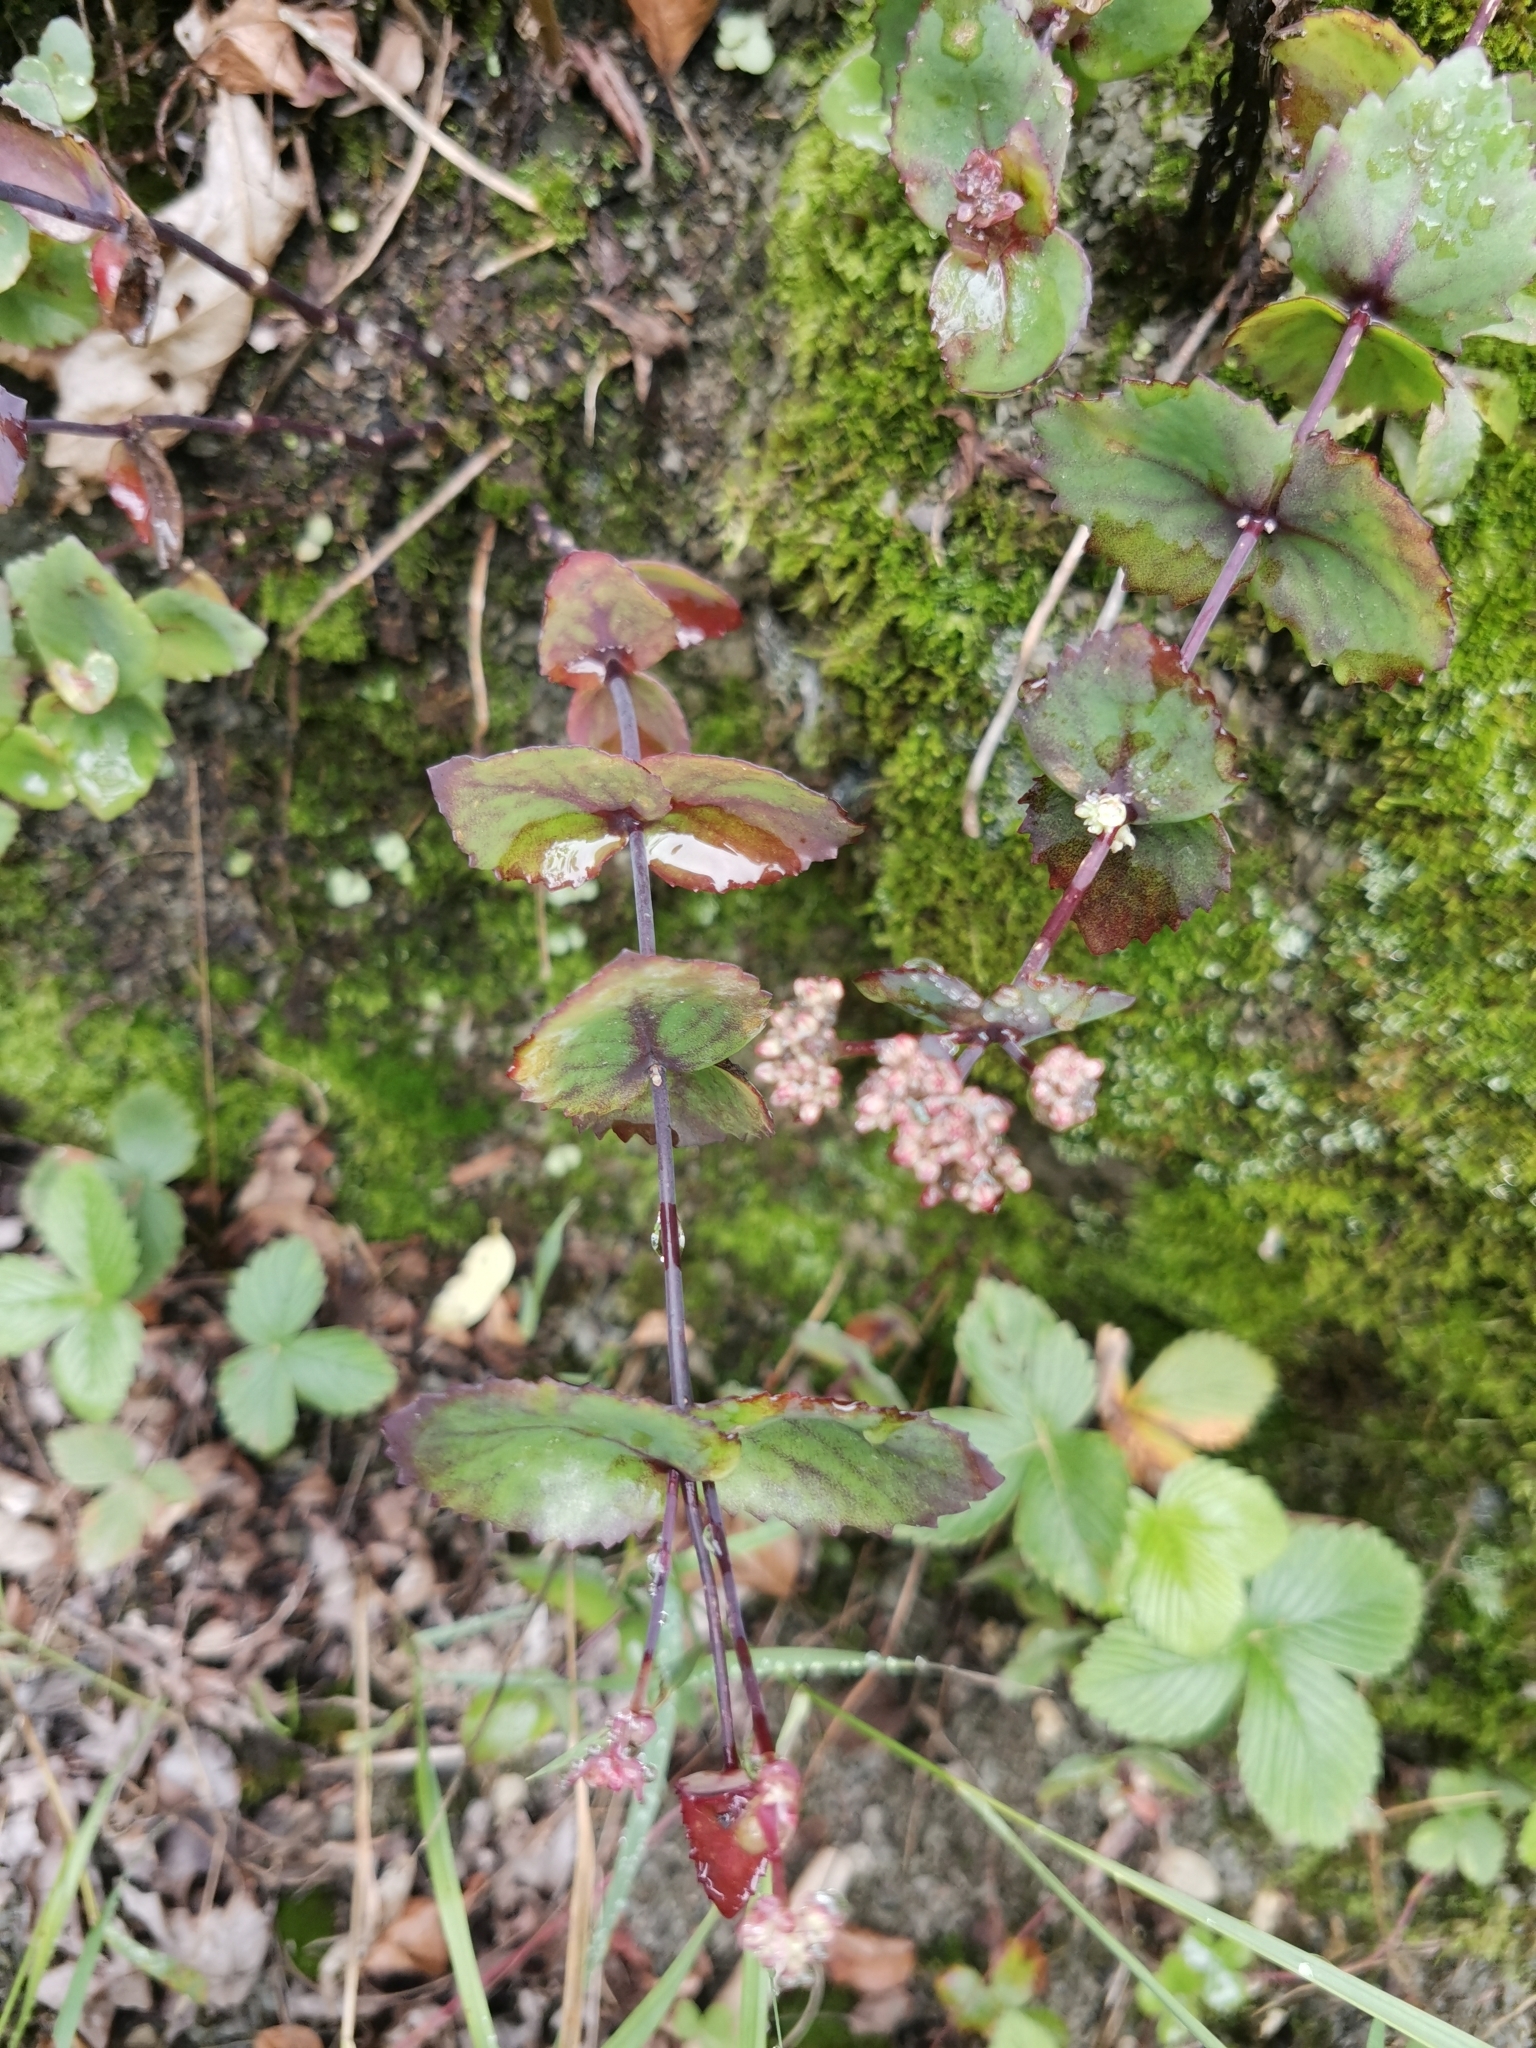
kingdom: Plantae
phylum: Tracheophyta
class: Magnoliopsida
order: Saxifragales
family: Crassulaceae
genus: Hylotelephium
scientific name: Hylotelephium ussuriense
